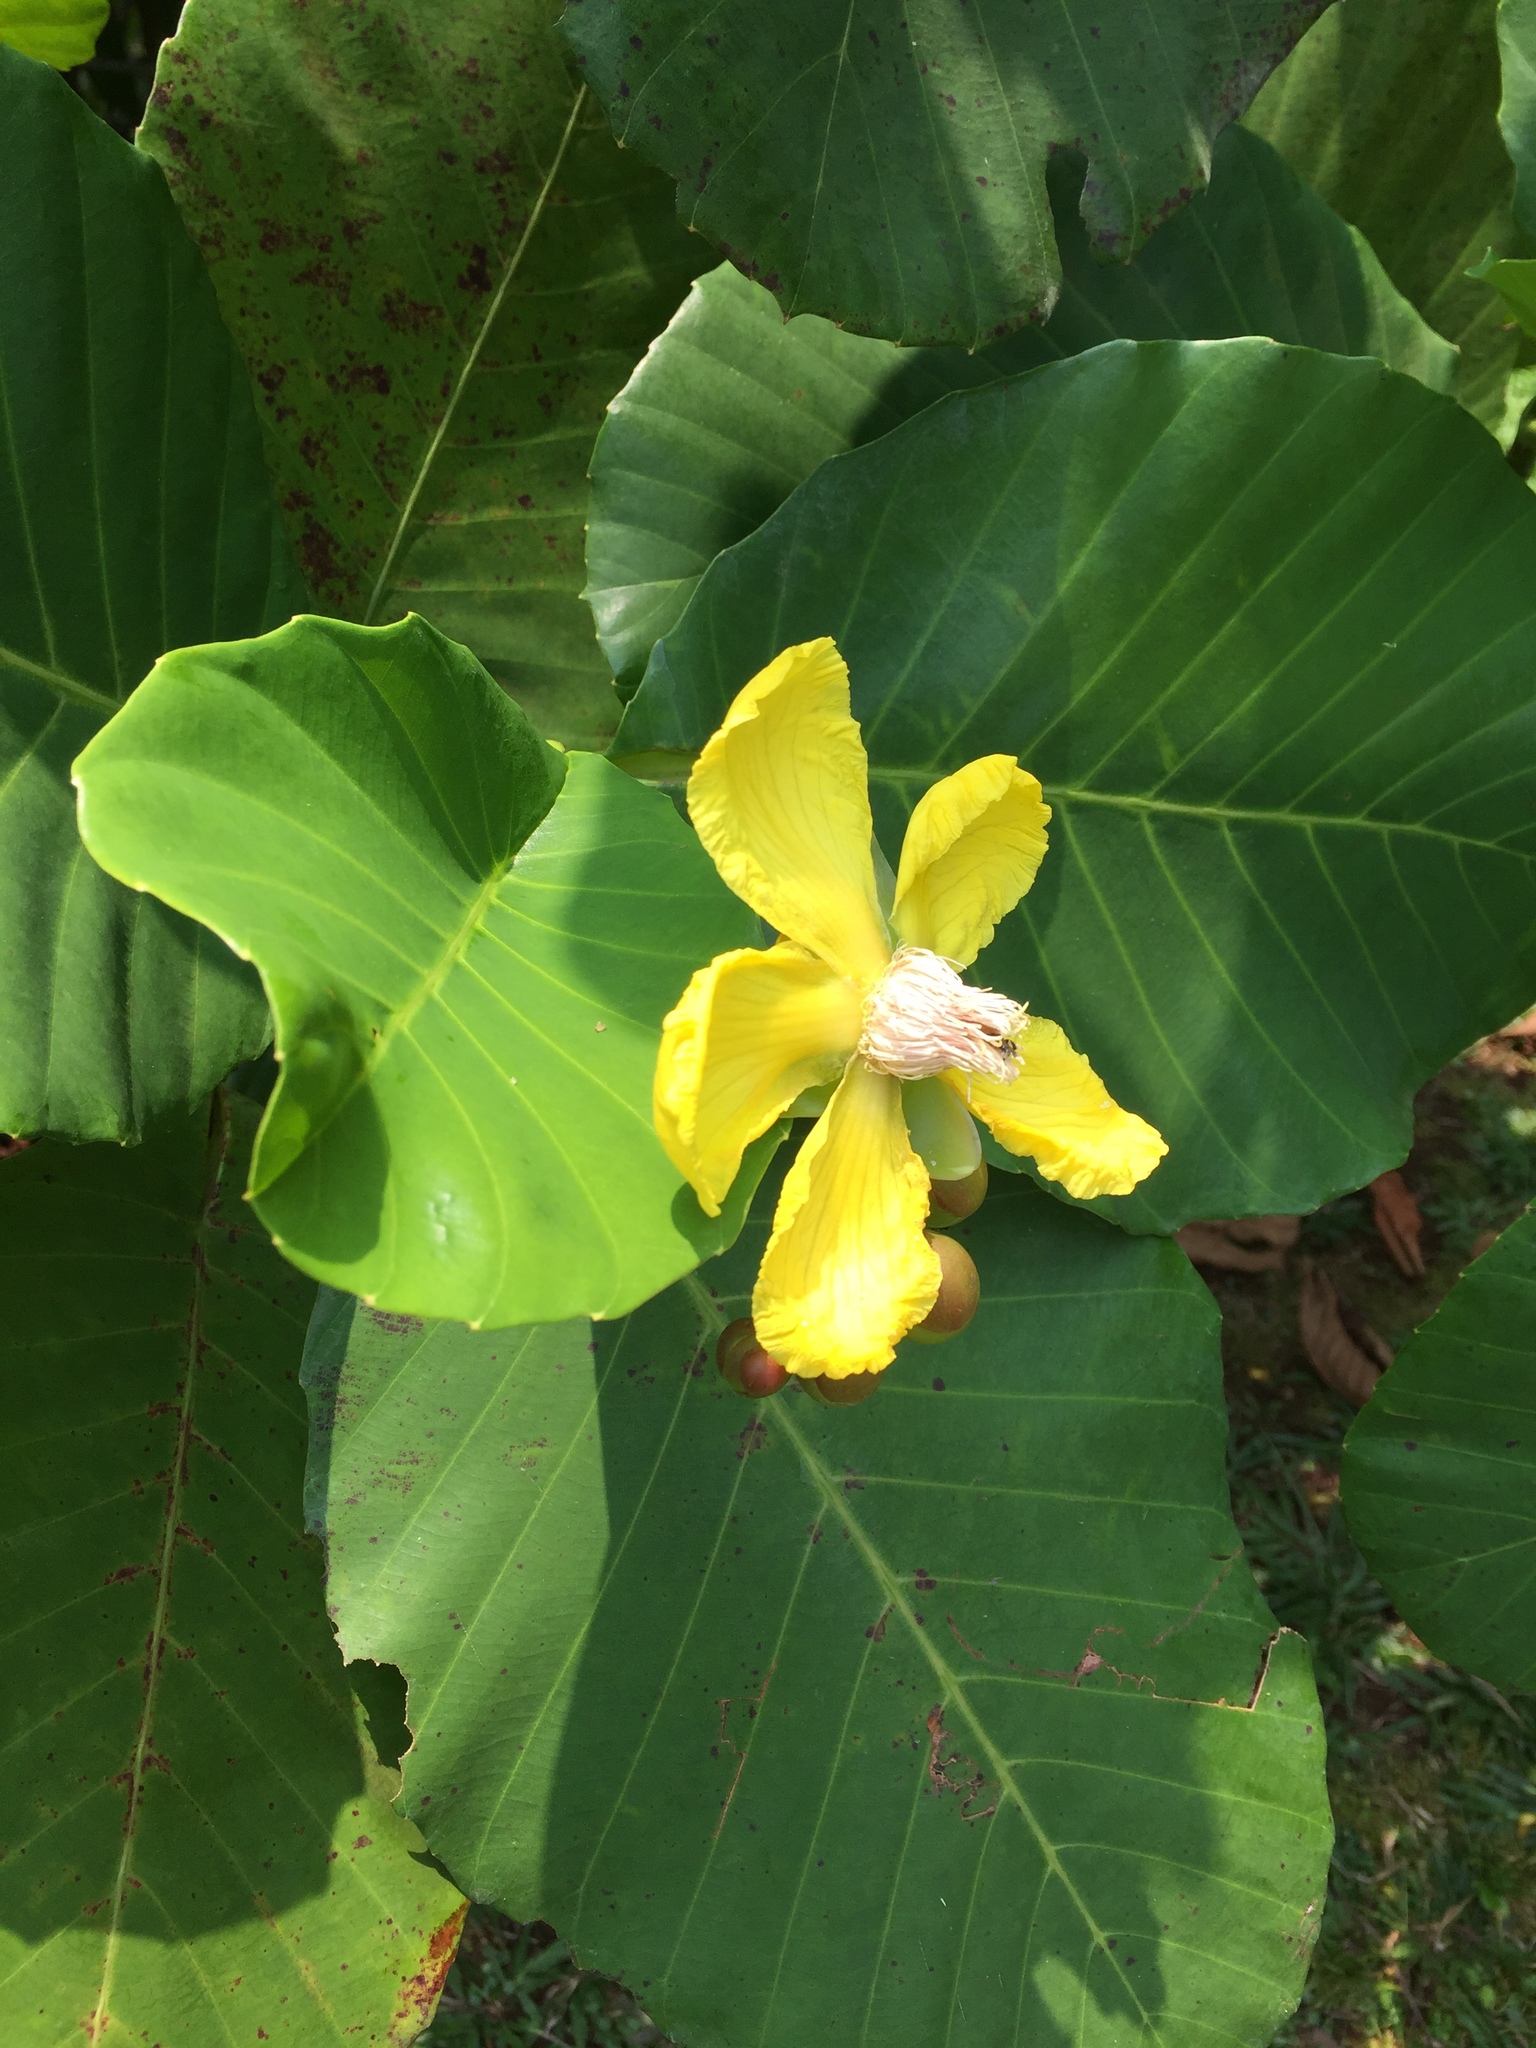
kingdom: Plantae
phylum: Tracheophyta
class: Magnoliopsida
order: Dilleniales
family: Dilleniaceae
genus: Dillenia
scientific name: Dillenia suffruticosa
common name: Shrubby dillenia
